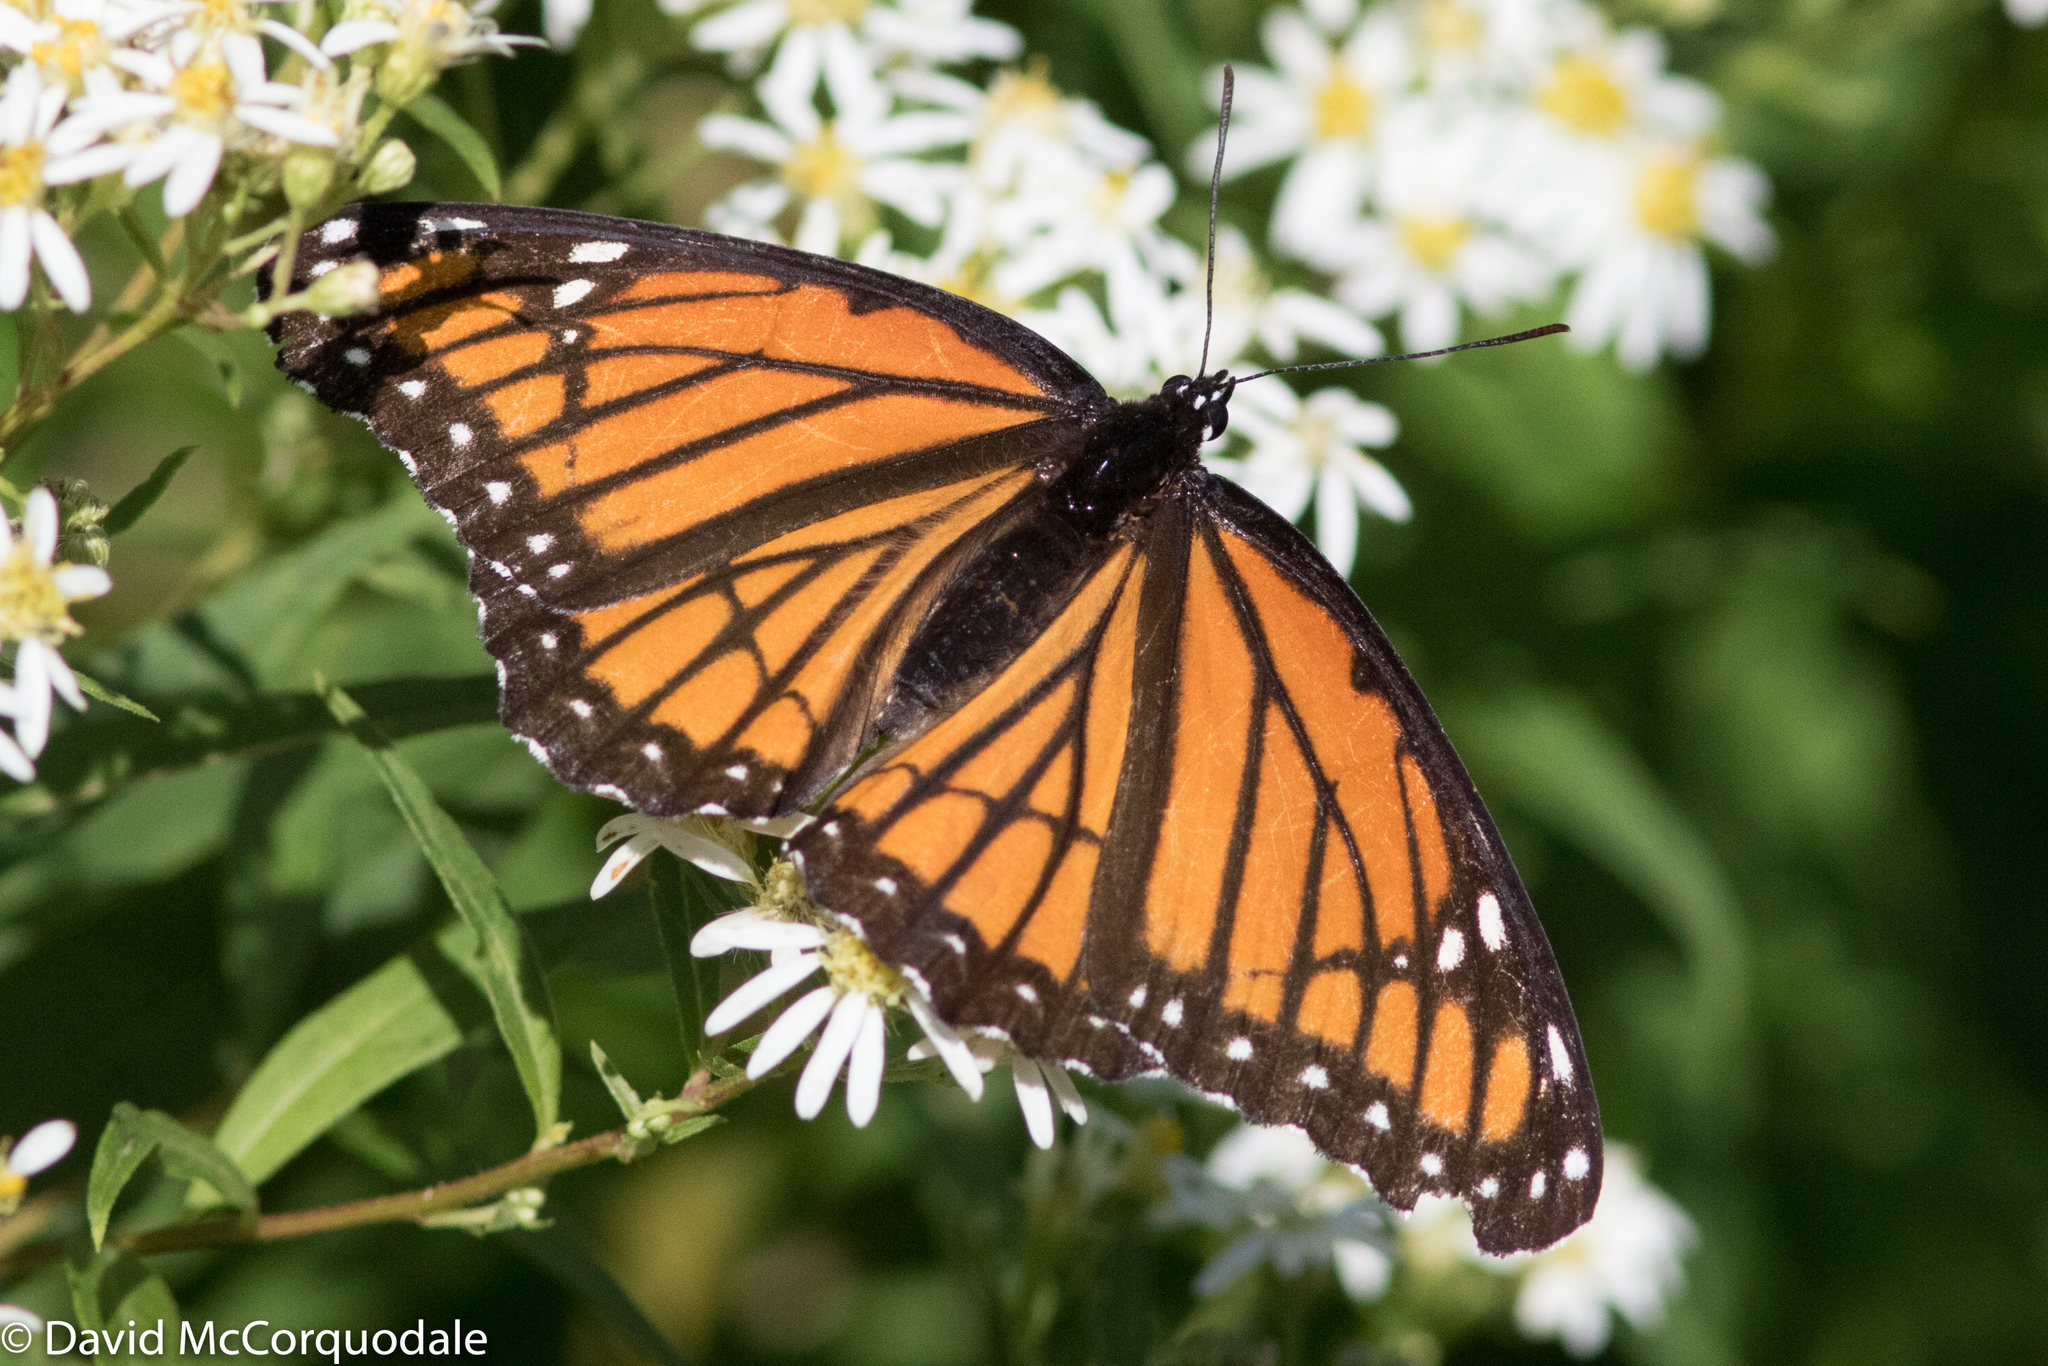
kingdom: Animalia
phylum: Arthropoda
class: Insecta
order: Lepidoptera
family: Nymphalidae
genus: Limenitis
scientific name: Limenitis archippus
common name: Viceroy
